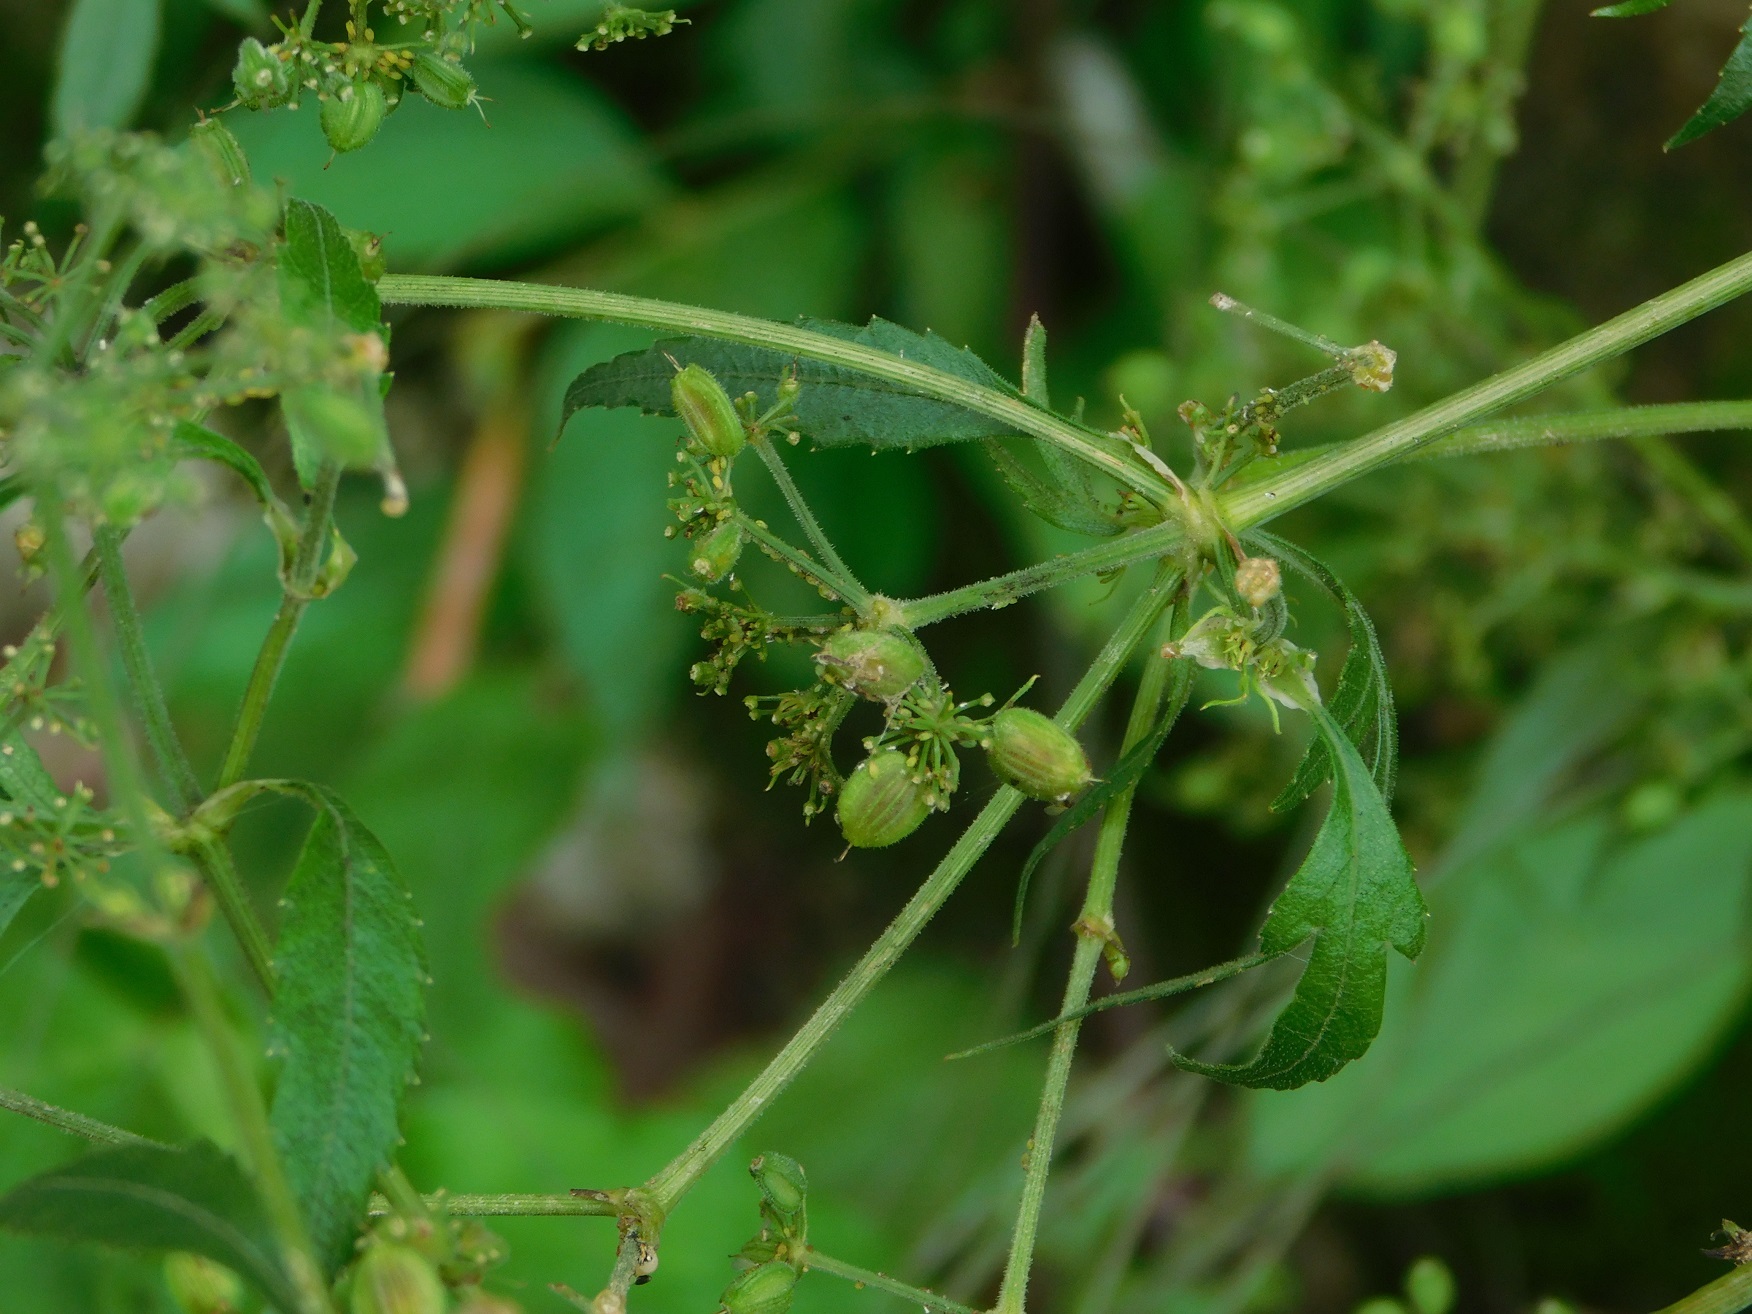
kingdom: Plantae
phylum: Tracheophyta
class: Magnoliopsida
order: Apiales
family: Apiaceae
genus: Rhodosciadium
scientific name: Rhodosciadium diffusum
